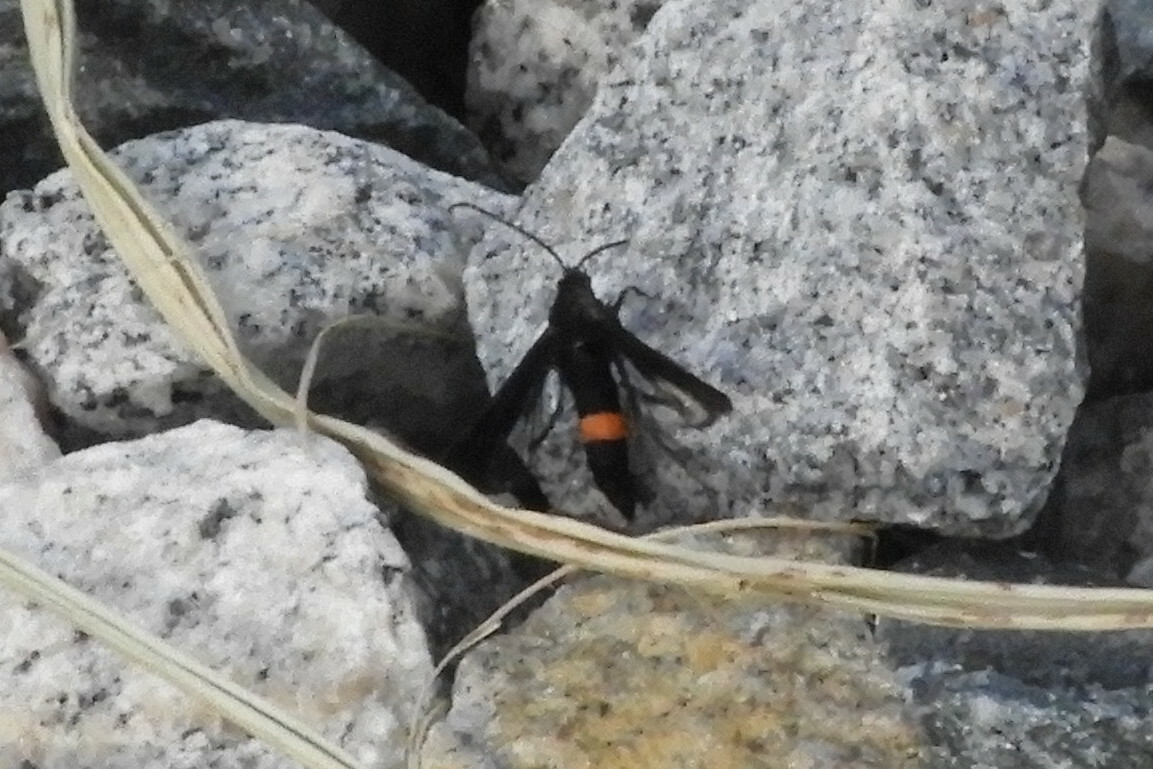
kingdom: Animalia
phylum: Arthropoda
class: Insecta
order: Lepidoptera
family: Sesiidae
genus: Synanthedon
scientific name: Synanthedon exitiosa
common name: Peachtree borer moth
